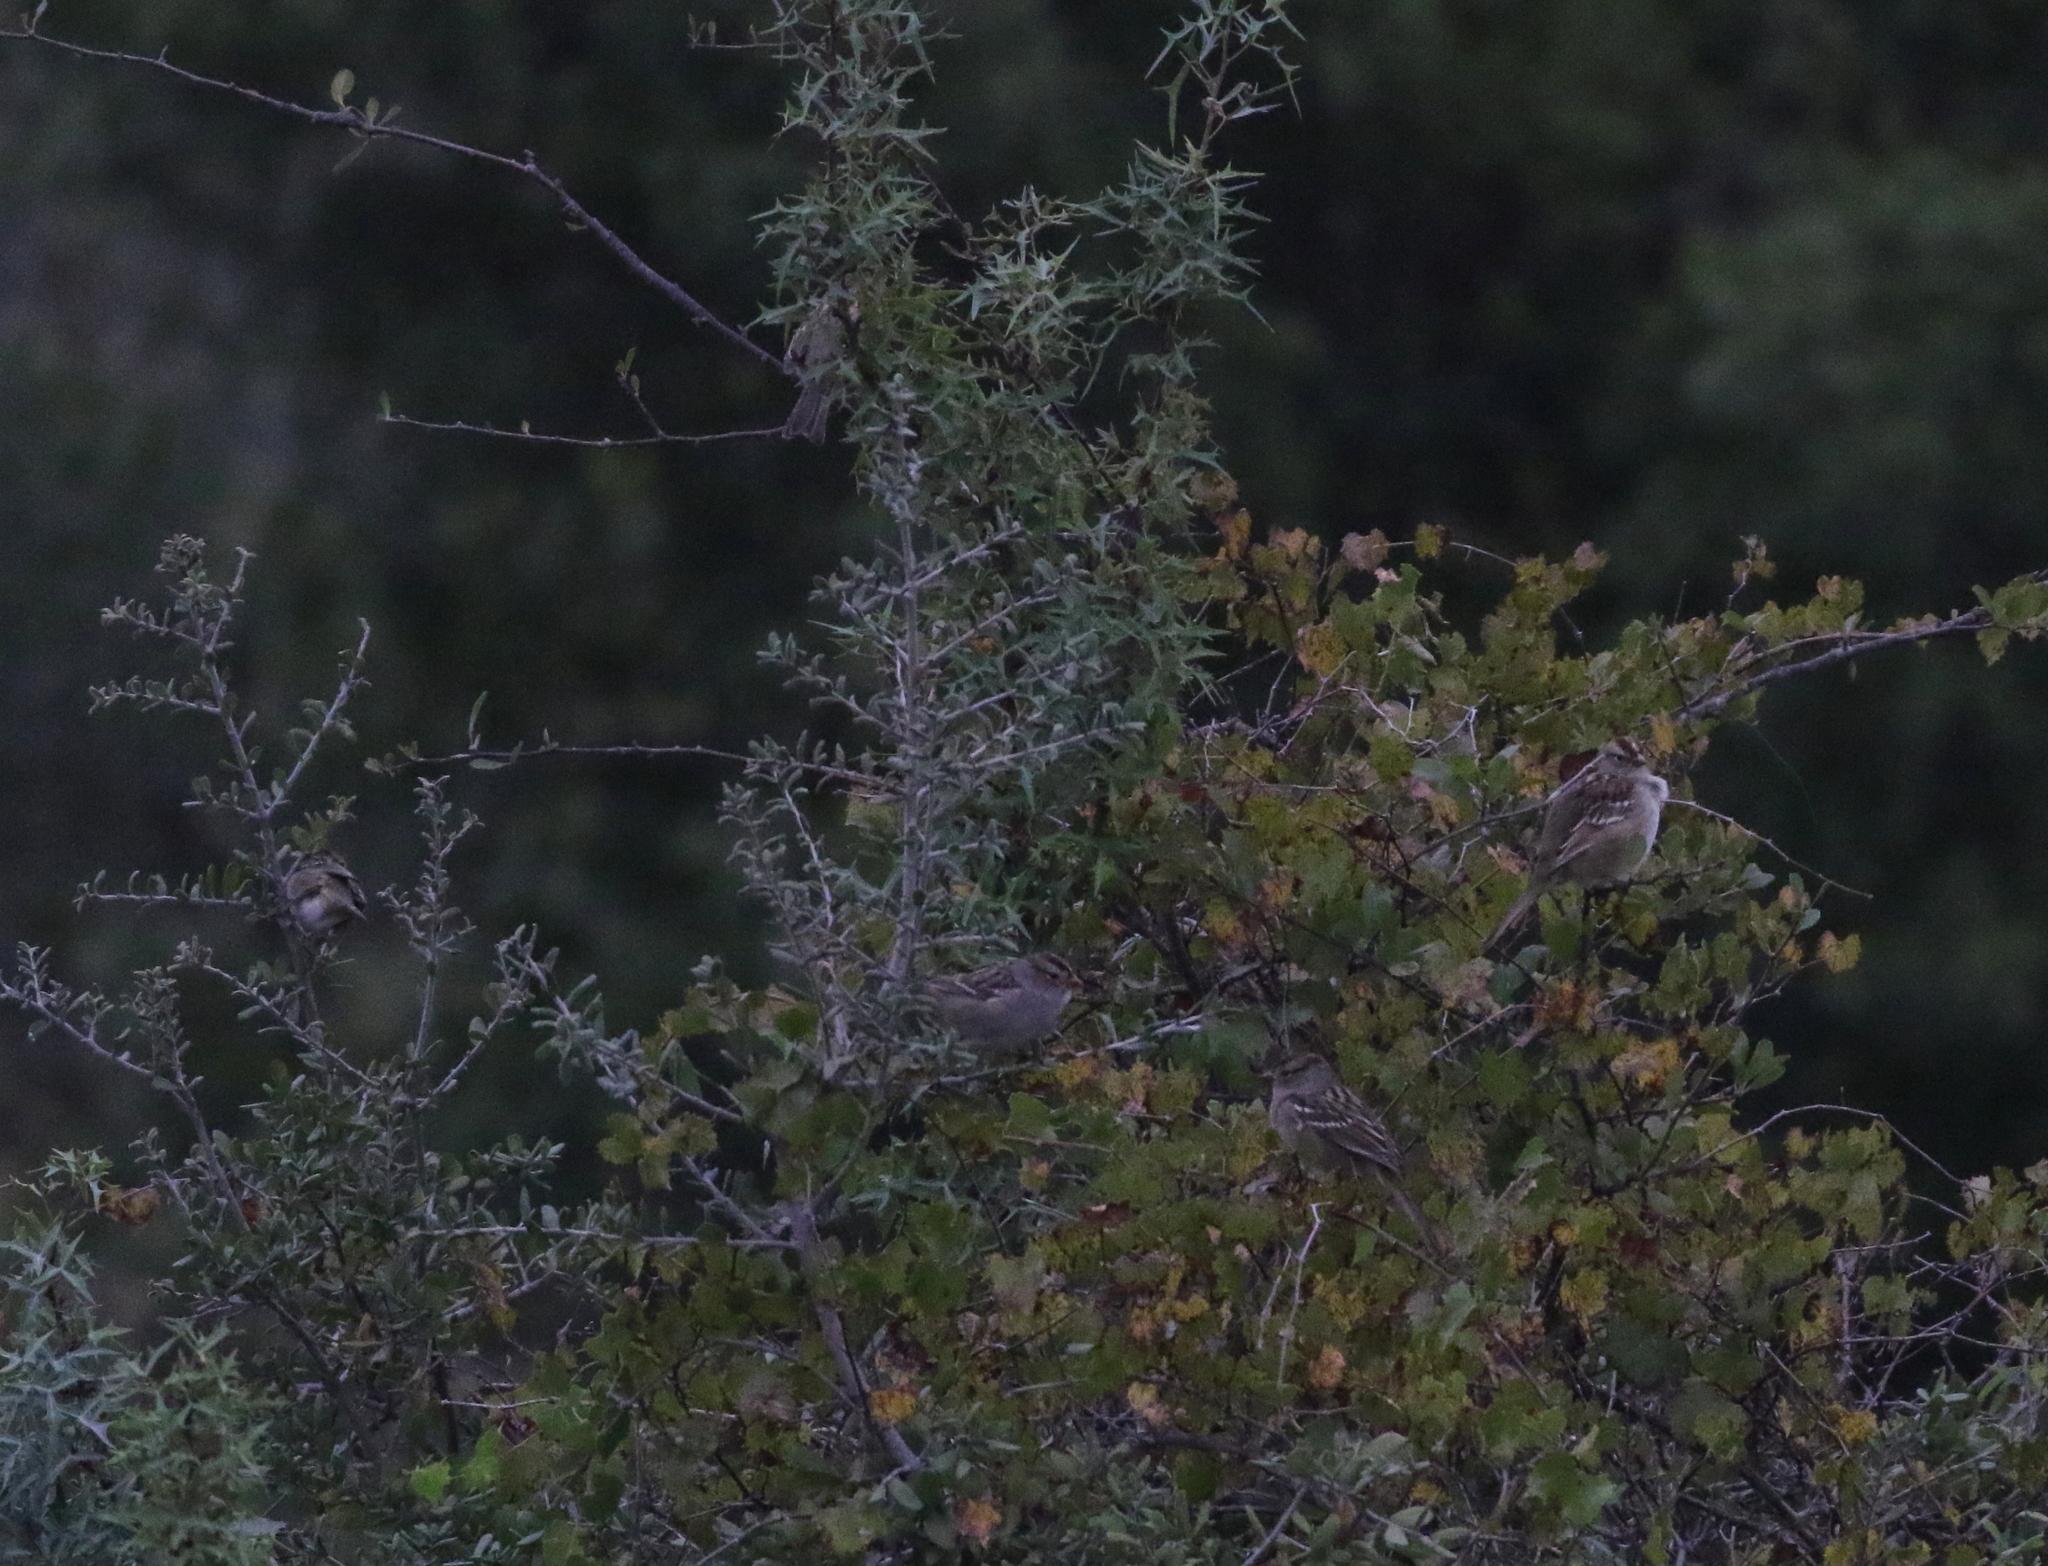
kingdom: Animalia
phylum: Chordata
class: Aves
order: Passeriformes
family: Passerellidae
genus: Zonotrichia
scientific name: Zonotrichia leucophrys
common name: White-crowned sparrow
